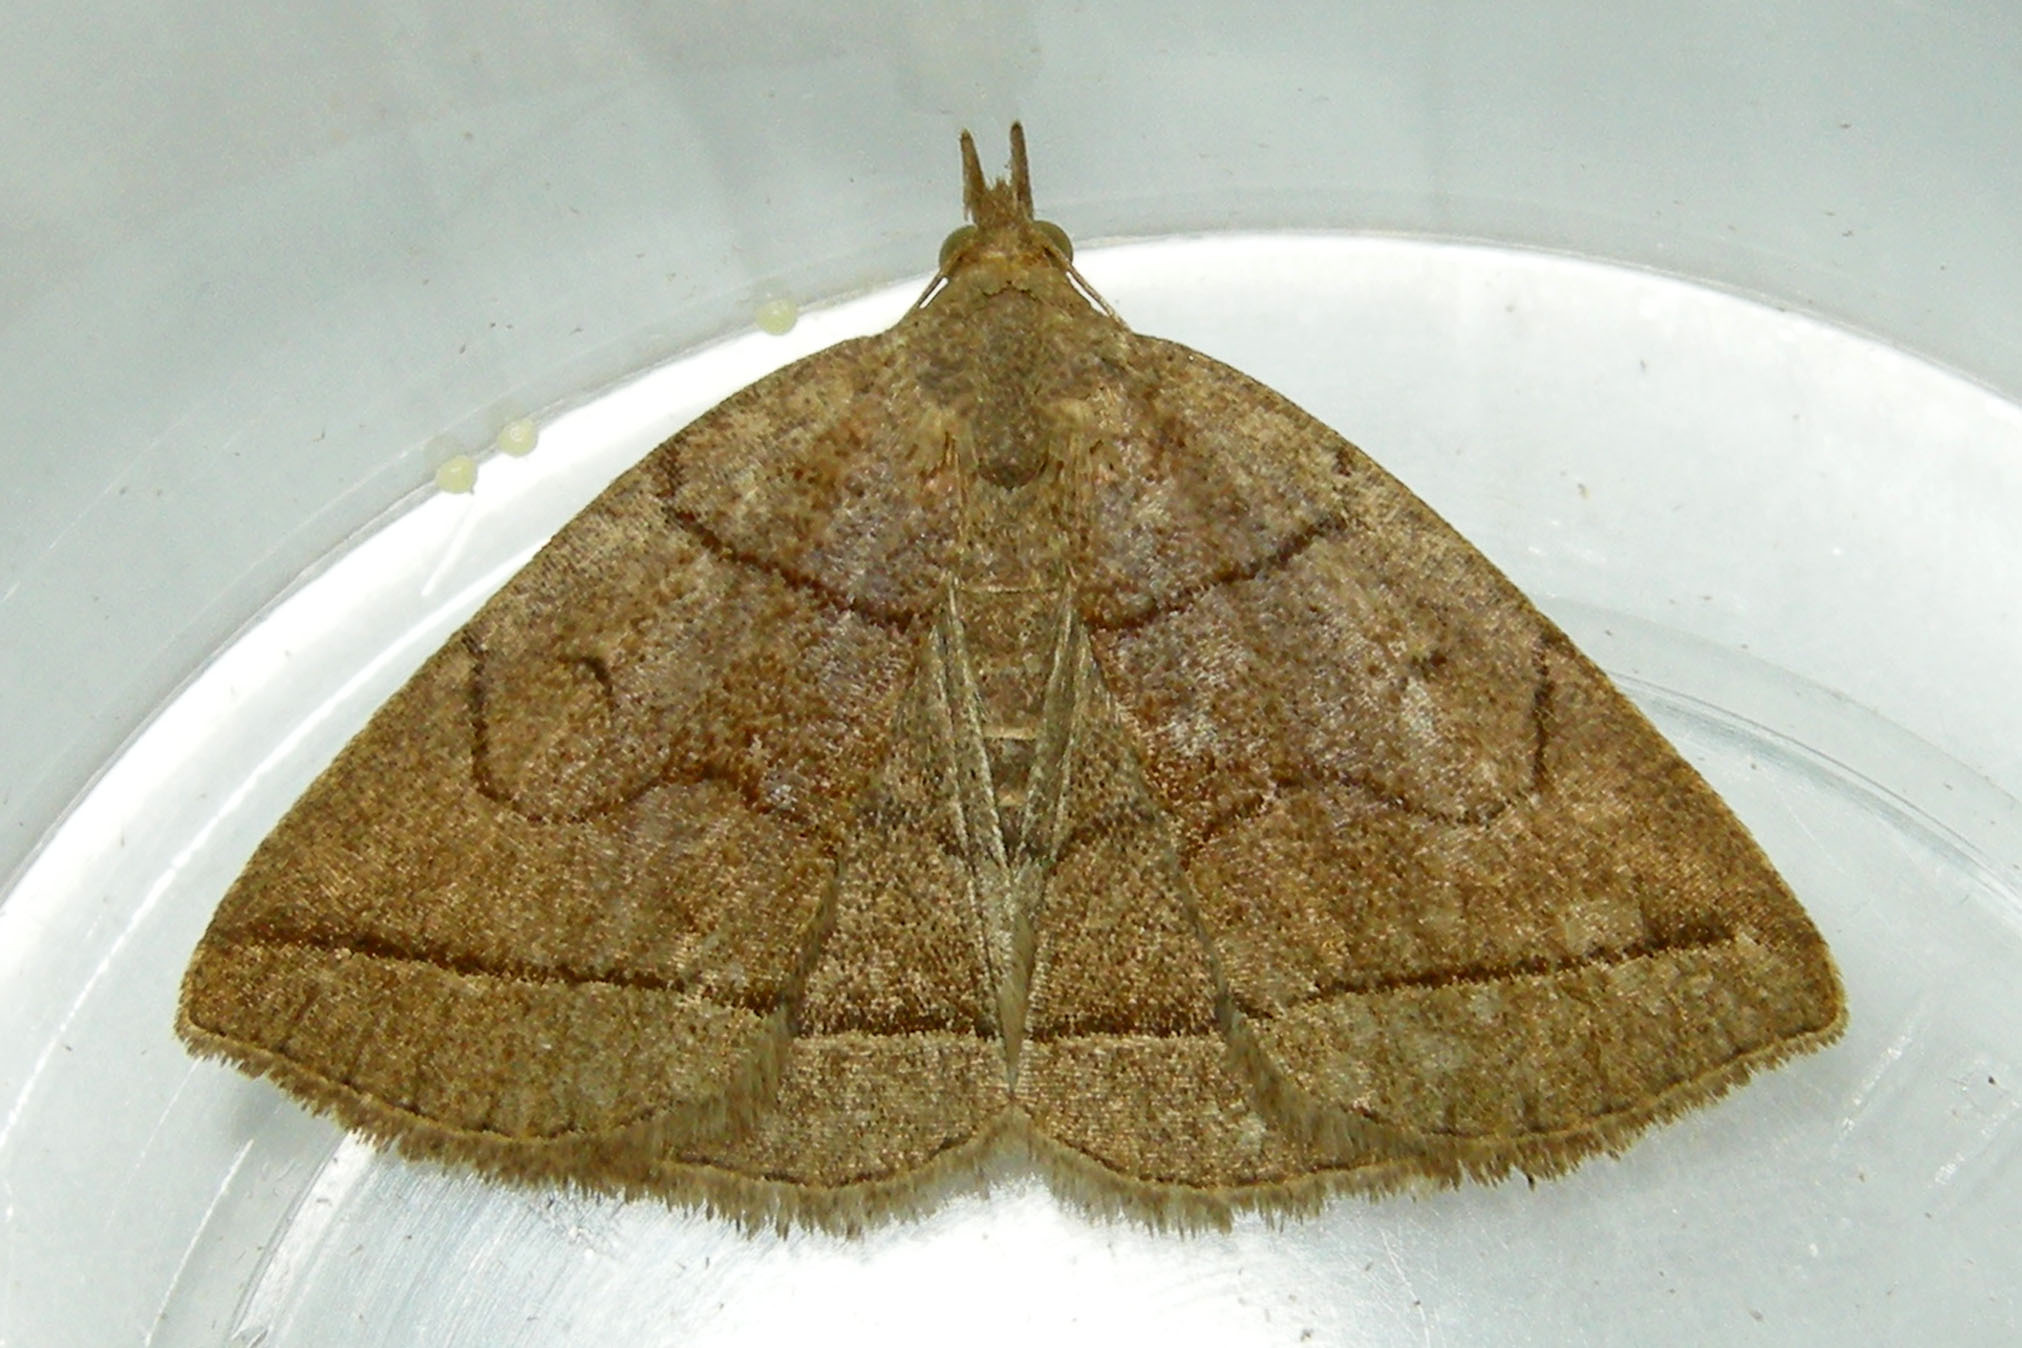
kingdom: Animalia
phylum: Arthropoda
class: Insecta
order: Lepidoptera
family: Erebidae
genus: Zanclognatha
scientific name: Zanclognatha cruralis
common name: Early fan-foot
